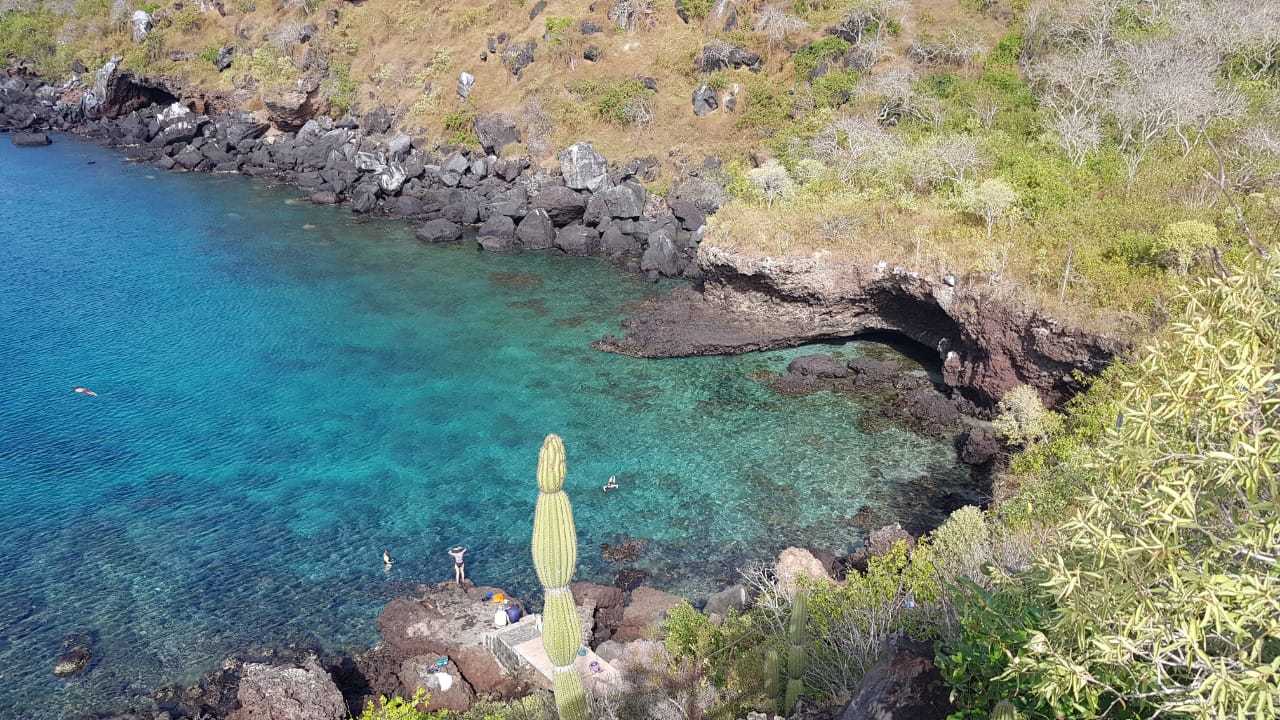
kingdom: Plantae
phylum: Tracheophyta
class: Magnoliopsida
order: Caryophyllales
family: Cactaceae
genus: Jasminocereus
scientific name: Jasminocereus thouarsii
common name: Candelabra cactus
